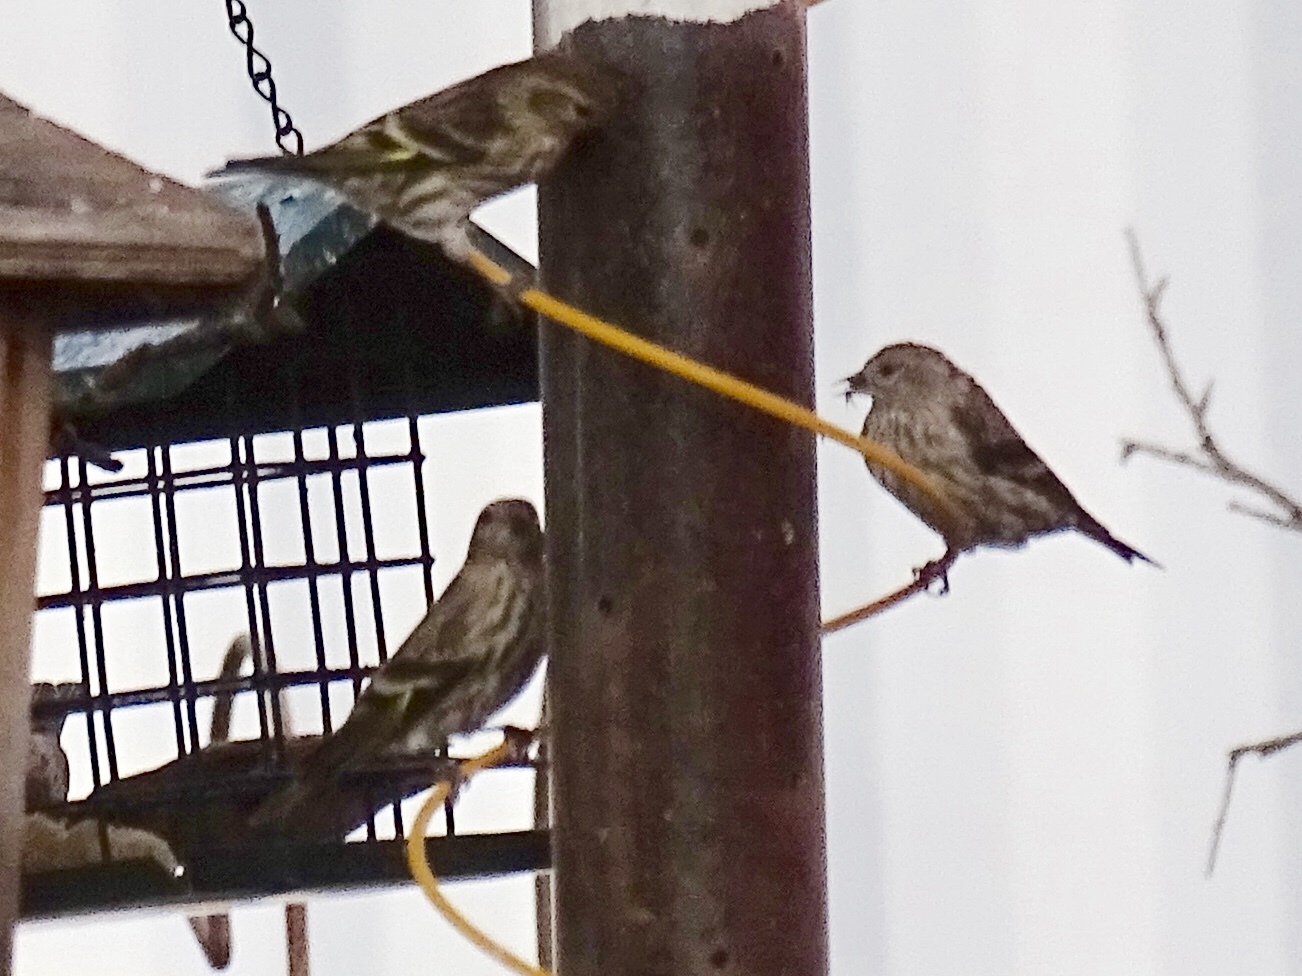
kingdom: Animalia
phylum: Chordata
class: Aves
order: Passeriformes
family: Fringillidae
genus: Spinus
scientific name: Spinus pinus
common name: Pine siskin
